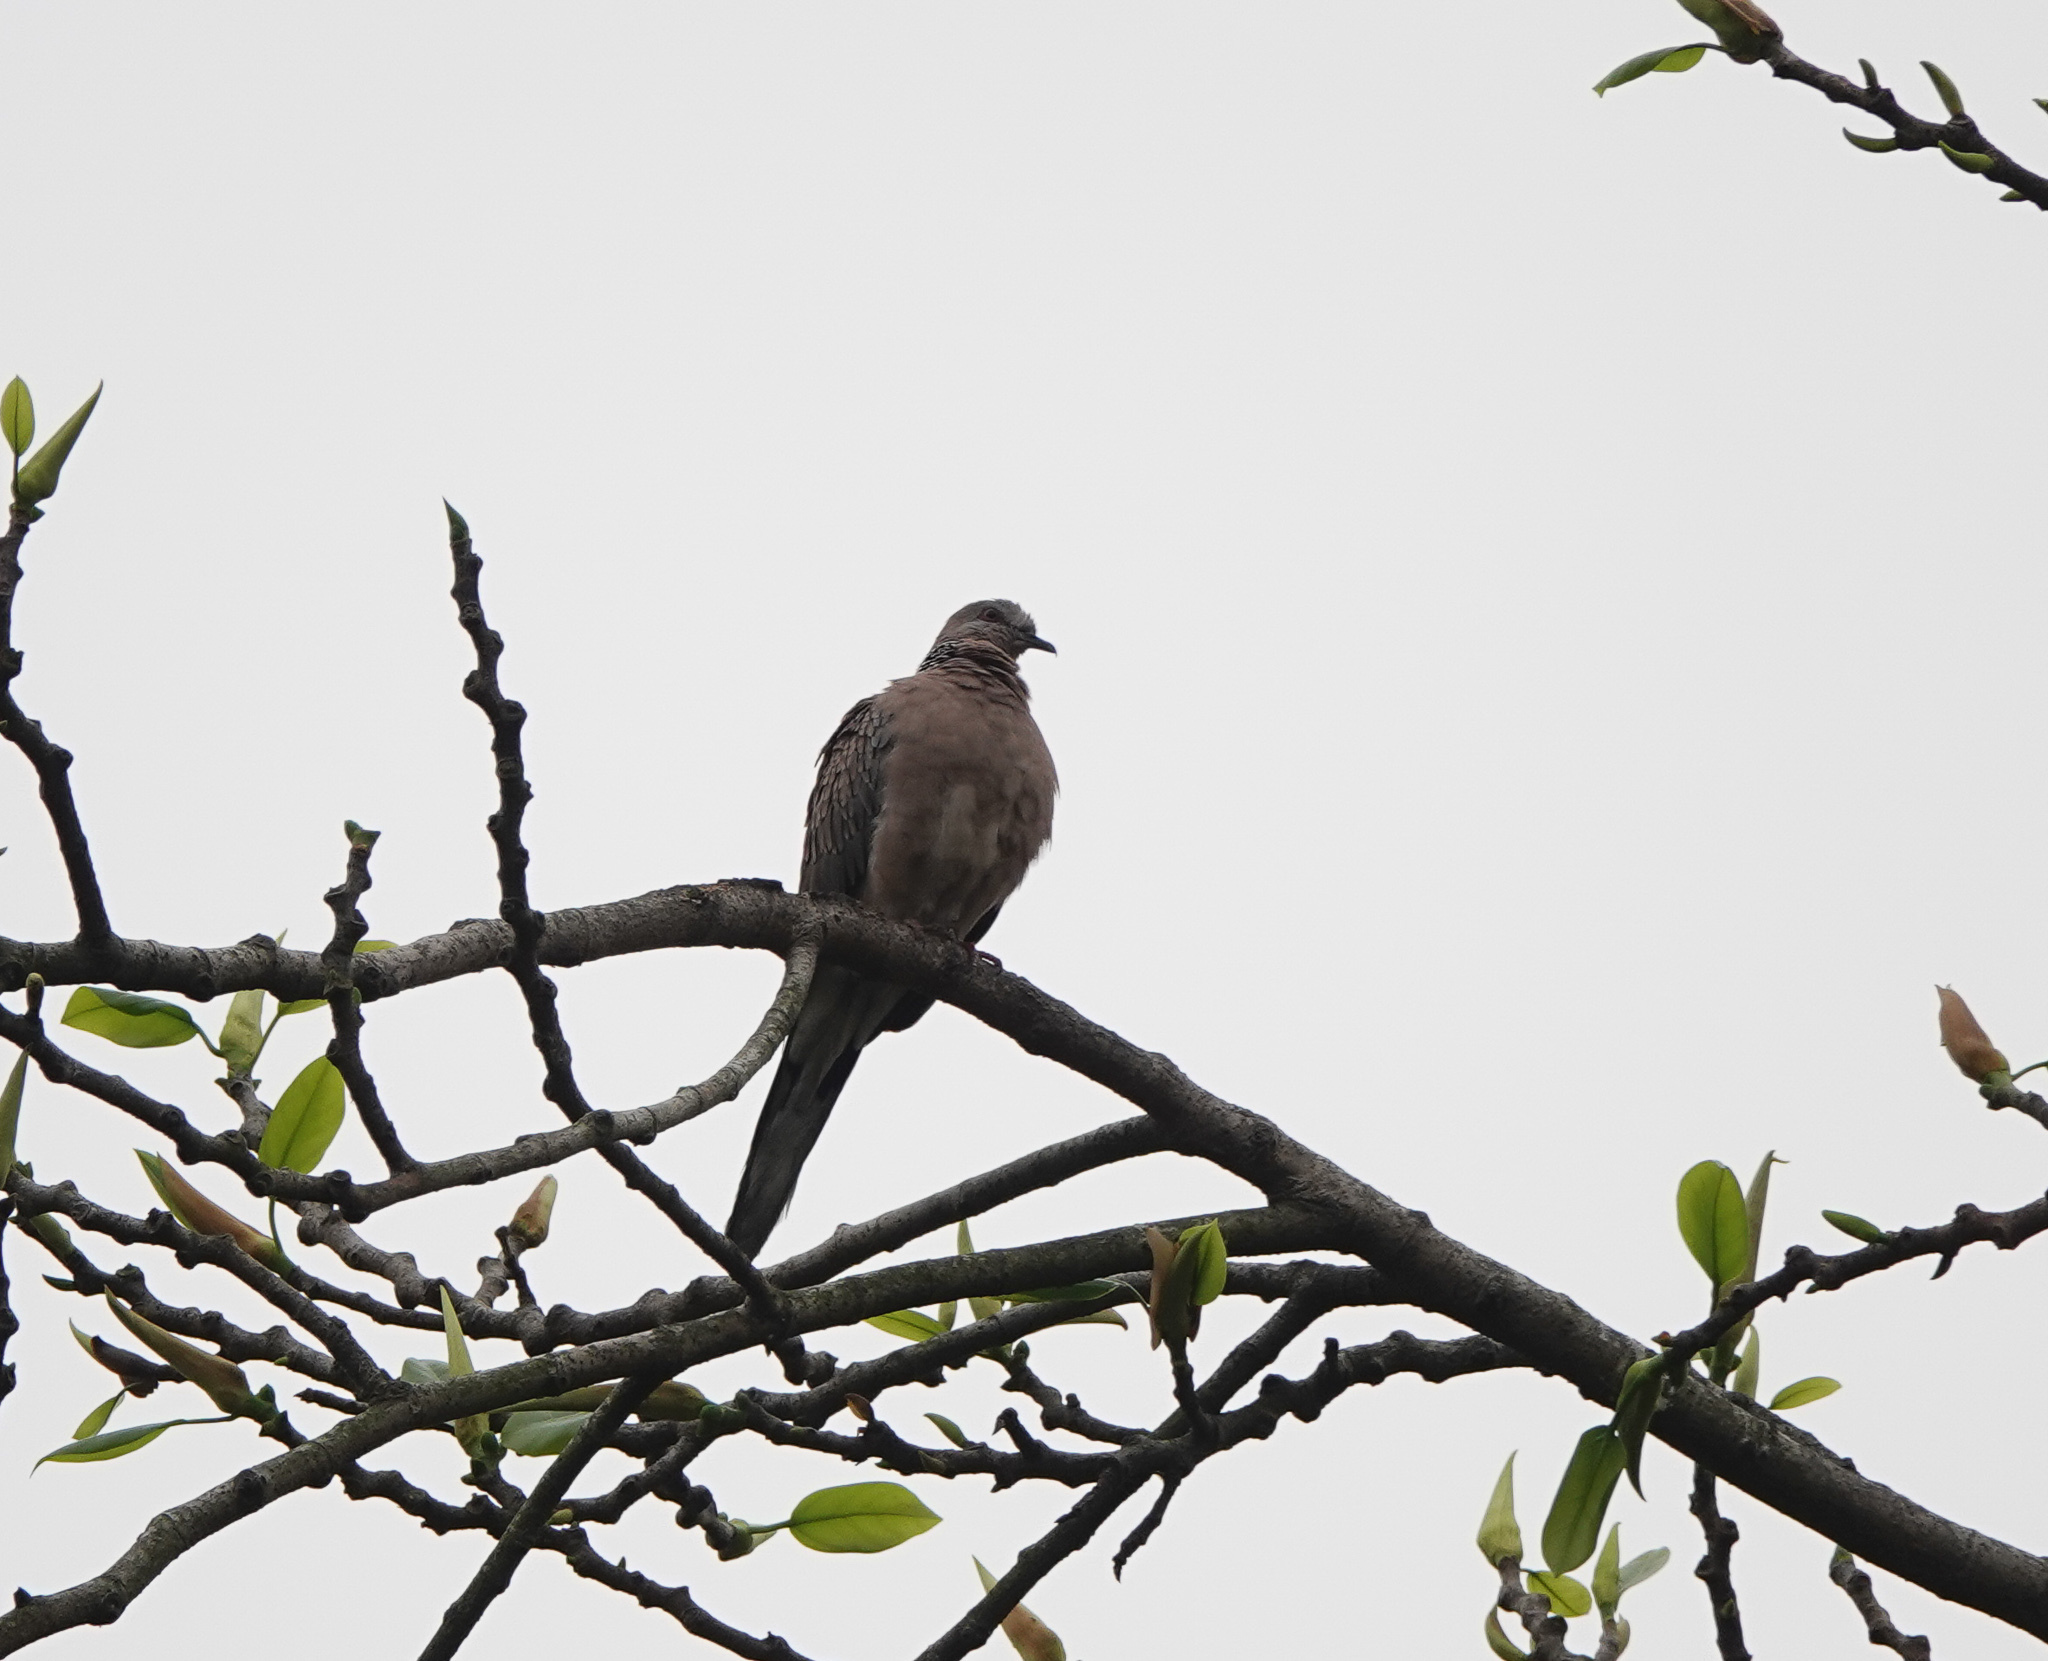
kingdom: Animalia
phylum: Chordata
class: Aves
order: Columbiformes
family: Columbidae
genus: Spilopelia
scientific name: Spilopelia chinensis
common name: Spotted dove
